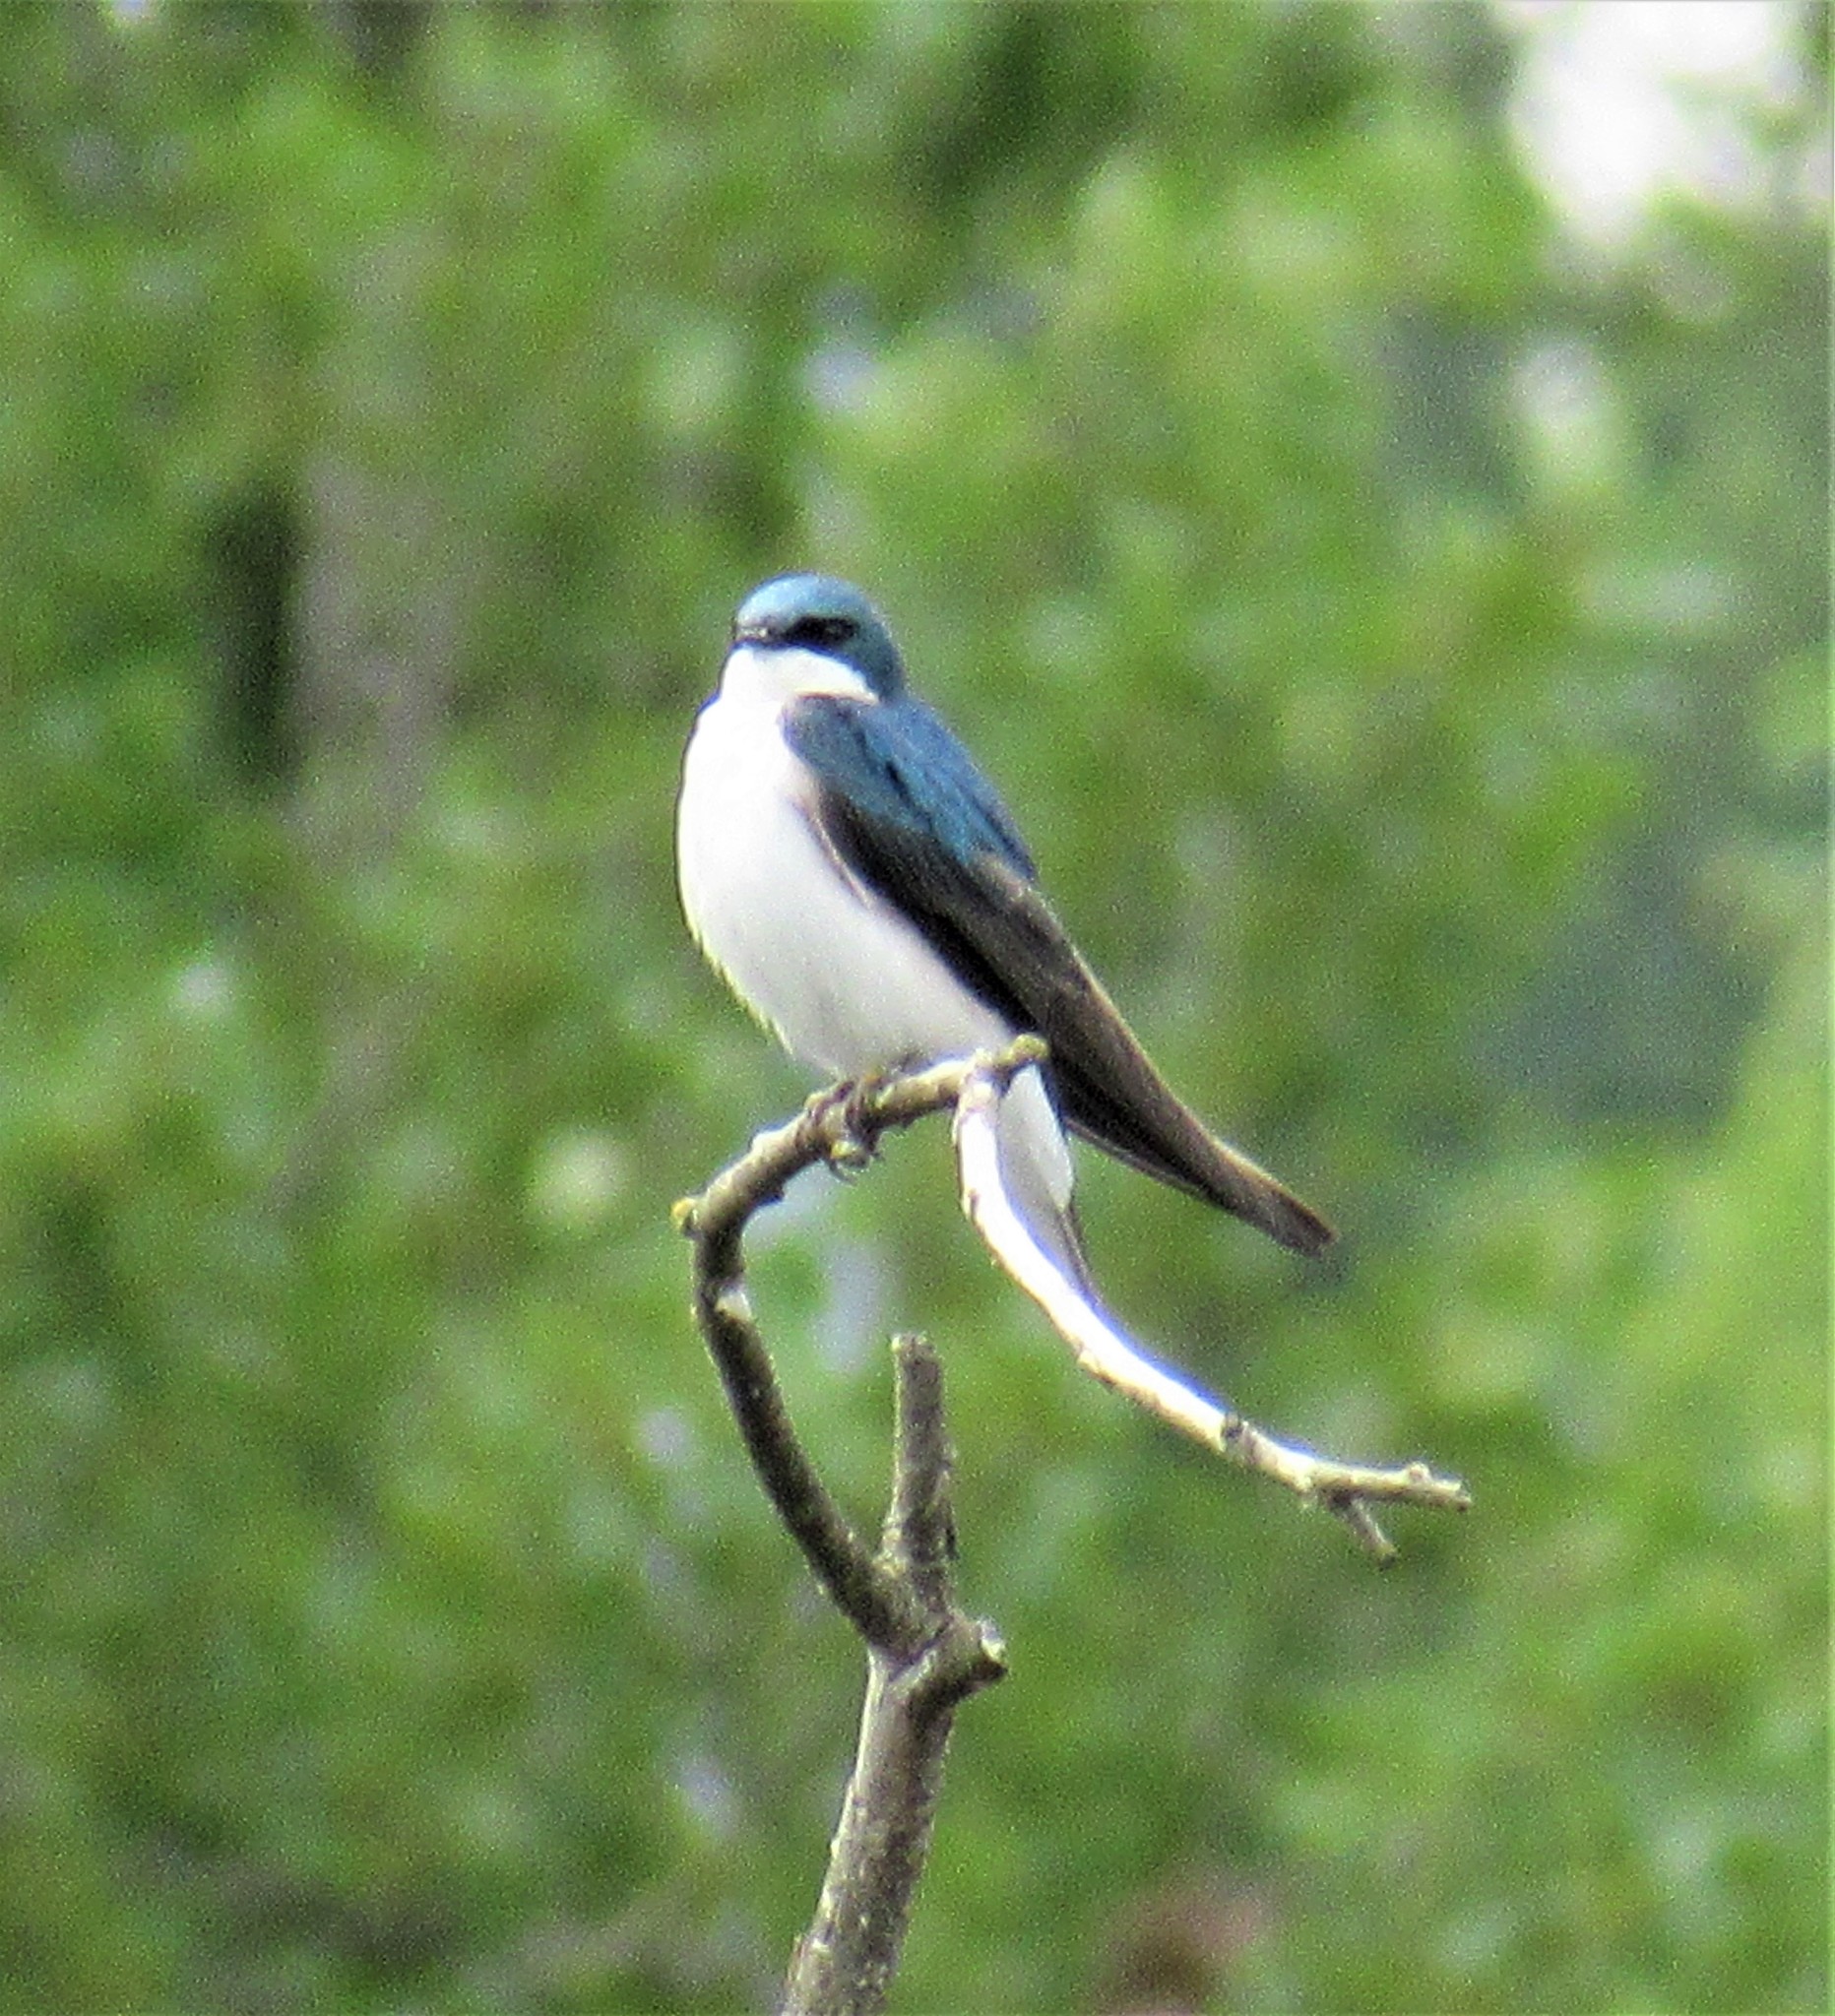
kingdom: Animalia
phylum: Chordata
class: Aves
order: Passeriformes
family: Hirundinidae
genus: Tachycineta
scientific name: Tachycineta bicolor
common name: Tree swallow
